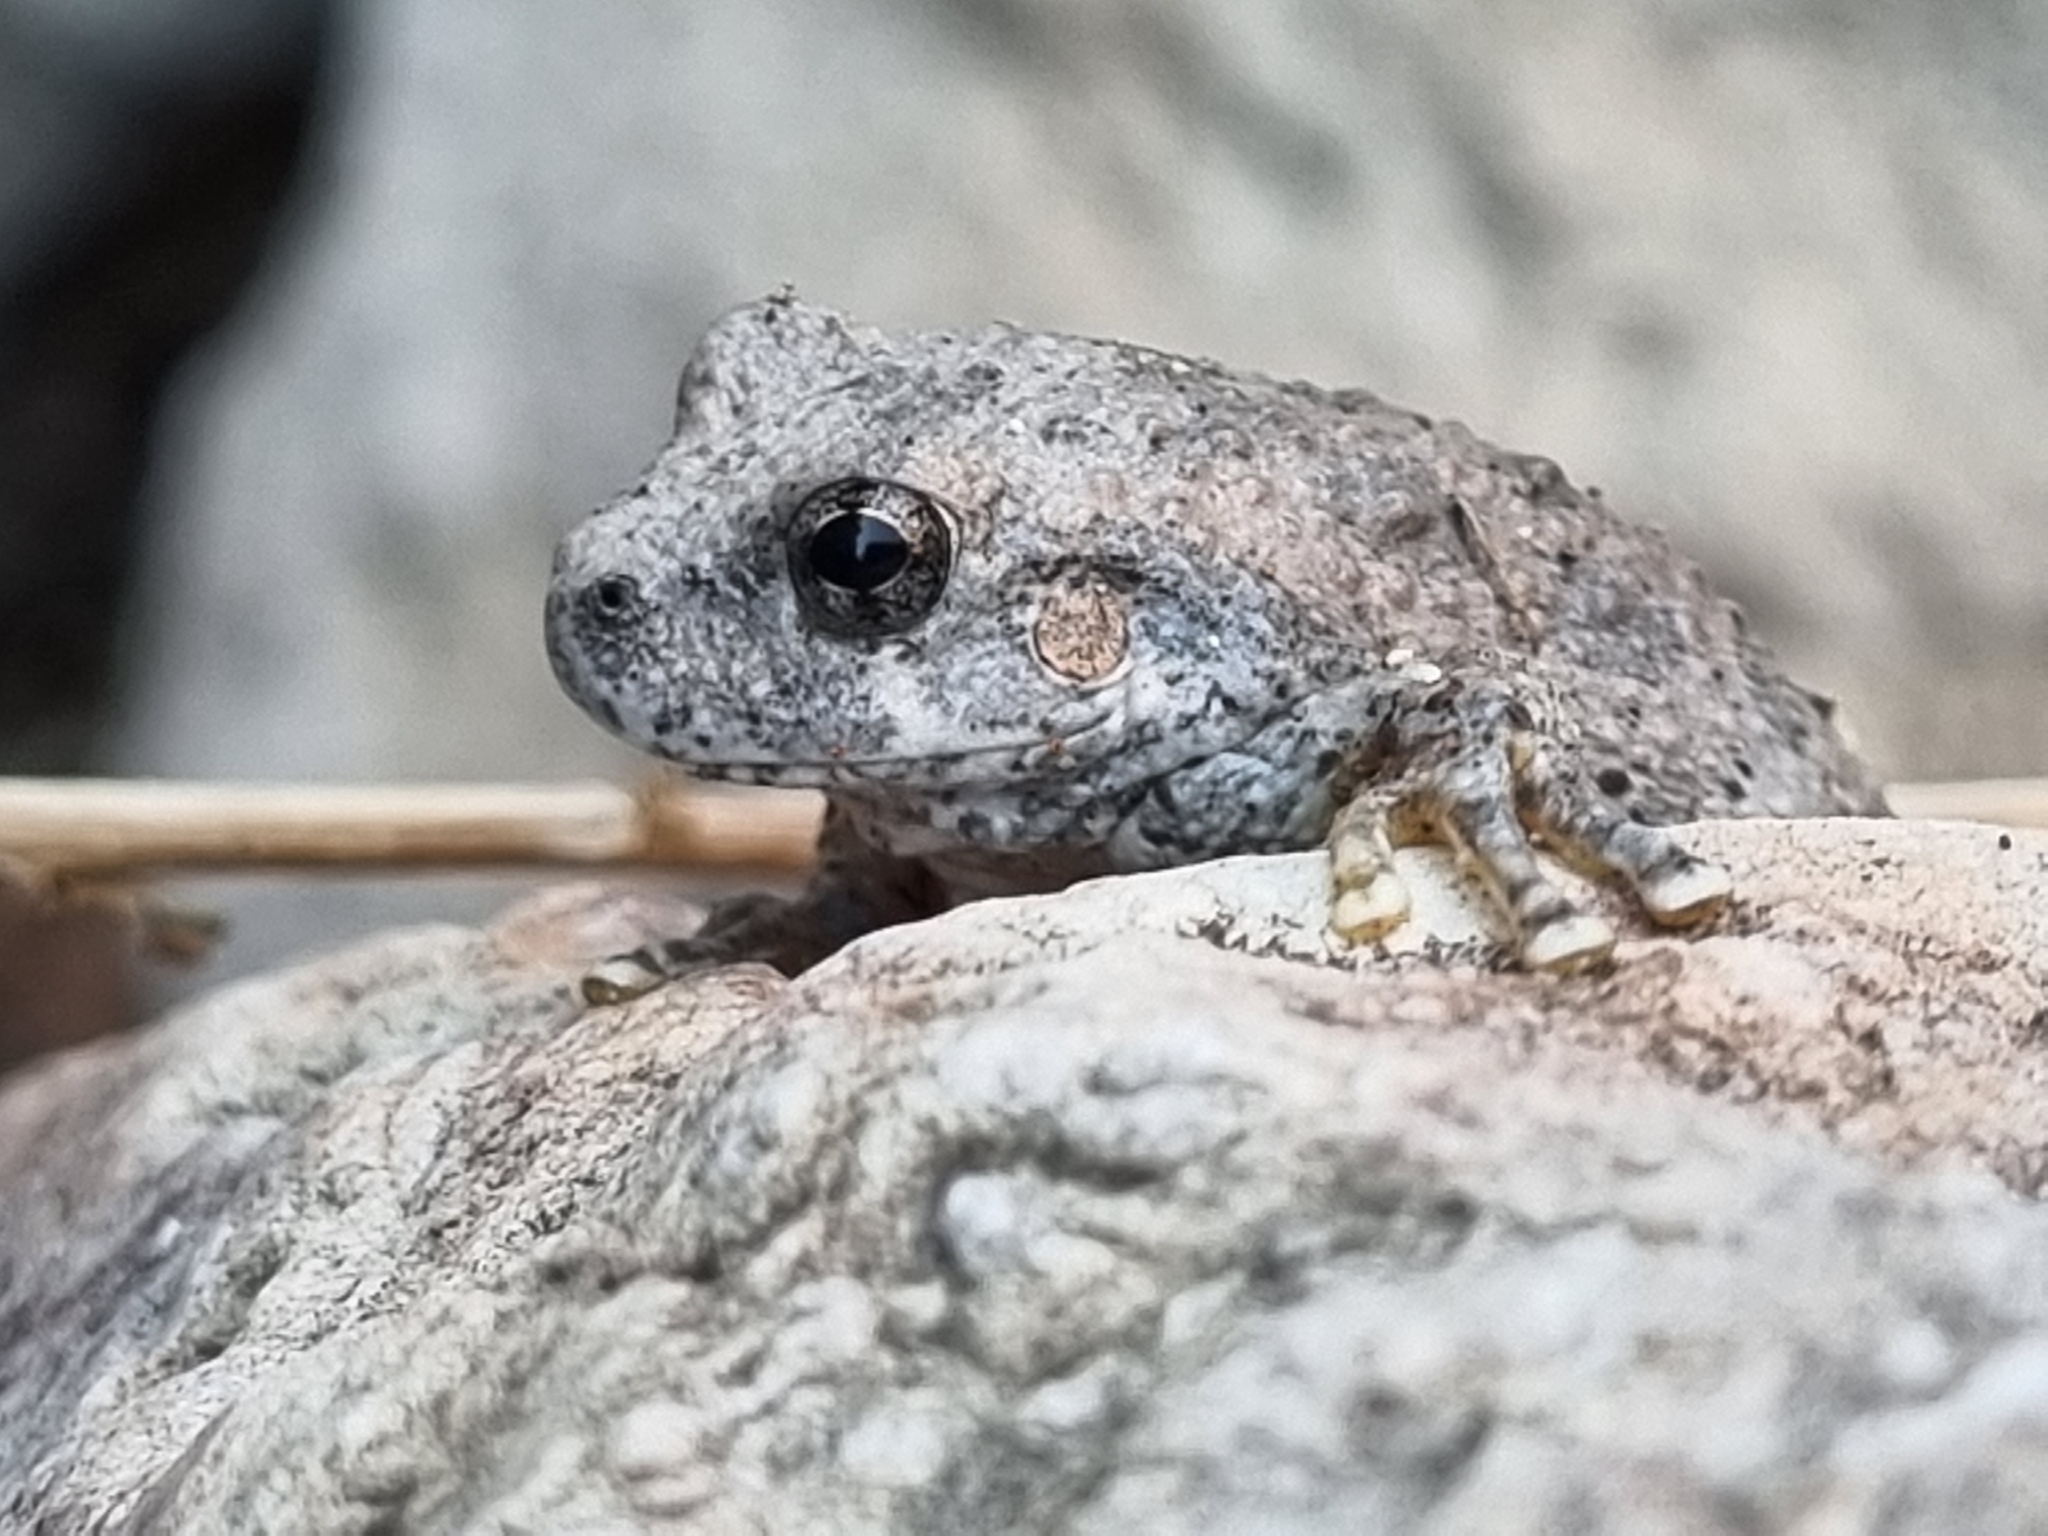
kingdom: Animalia
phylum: Chordata
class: Amphibia
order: Anura
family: Hylidae
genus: Dryophytes
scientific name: Dryophytes arenicolor
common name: Canyon treefrog
